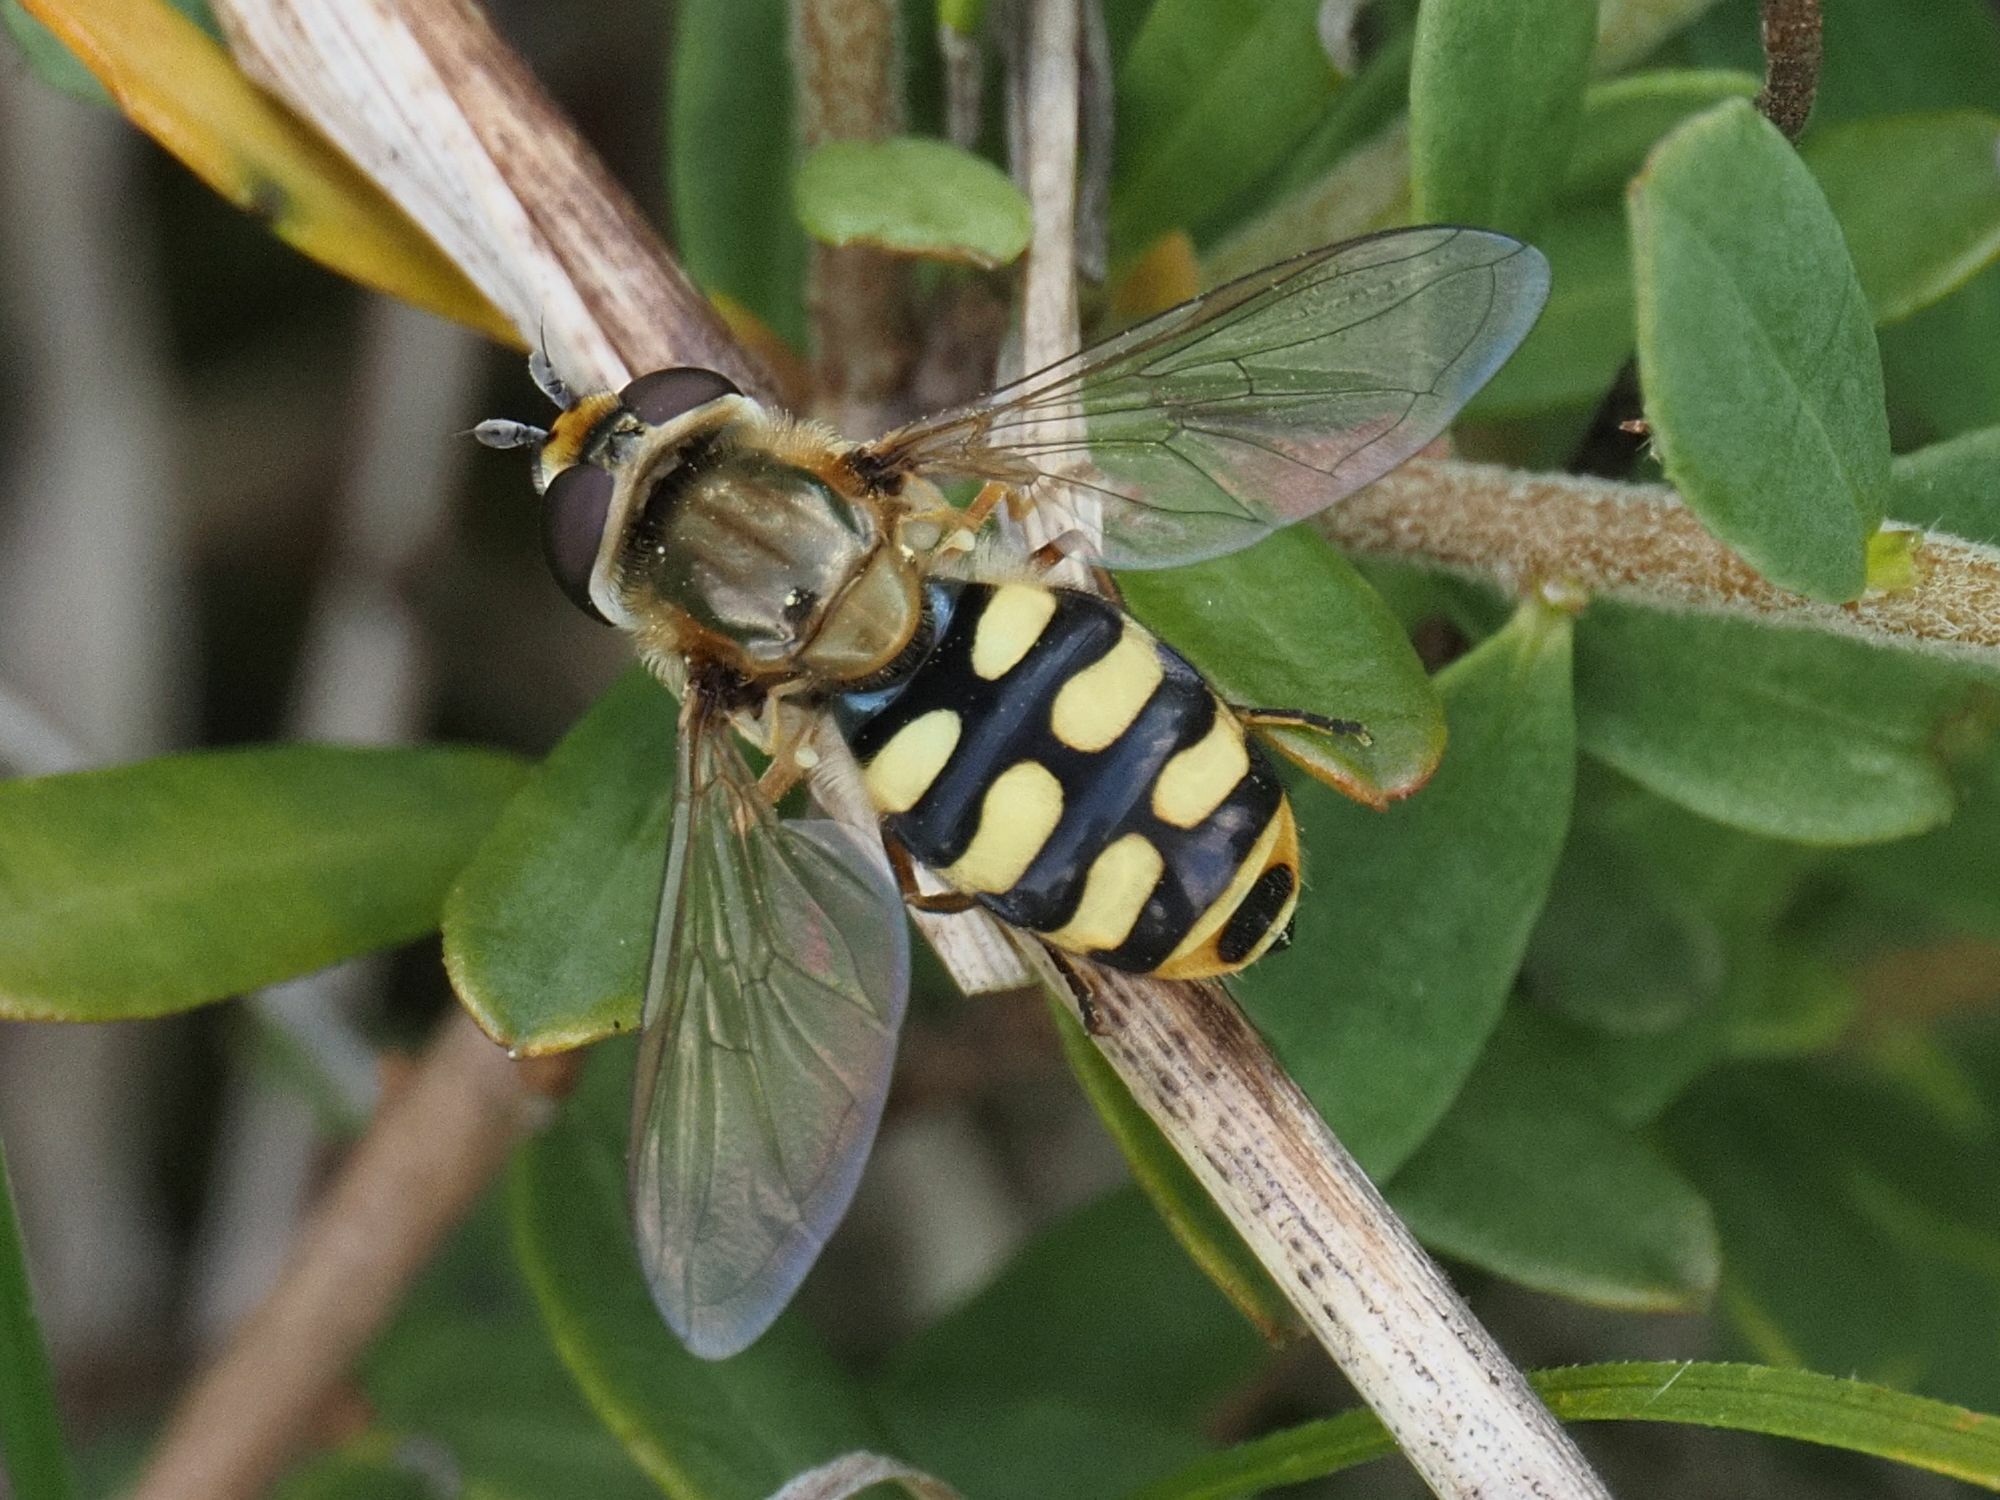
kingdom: Animalia
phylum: Arthropoda
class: Insecta
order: Diptera
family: Syrphidae
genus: Eupeodes
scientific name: Eupeodes corollae
